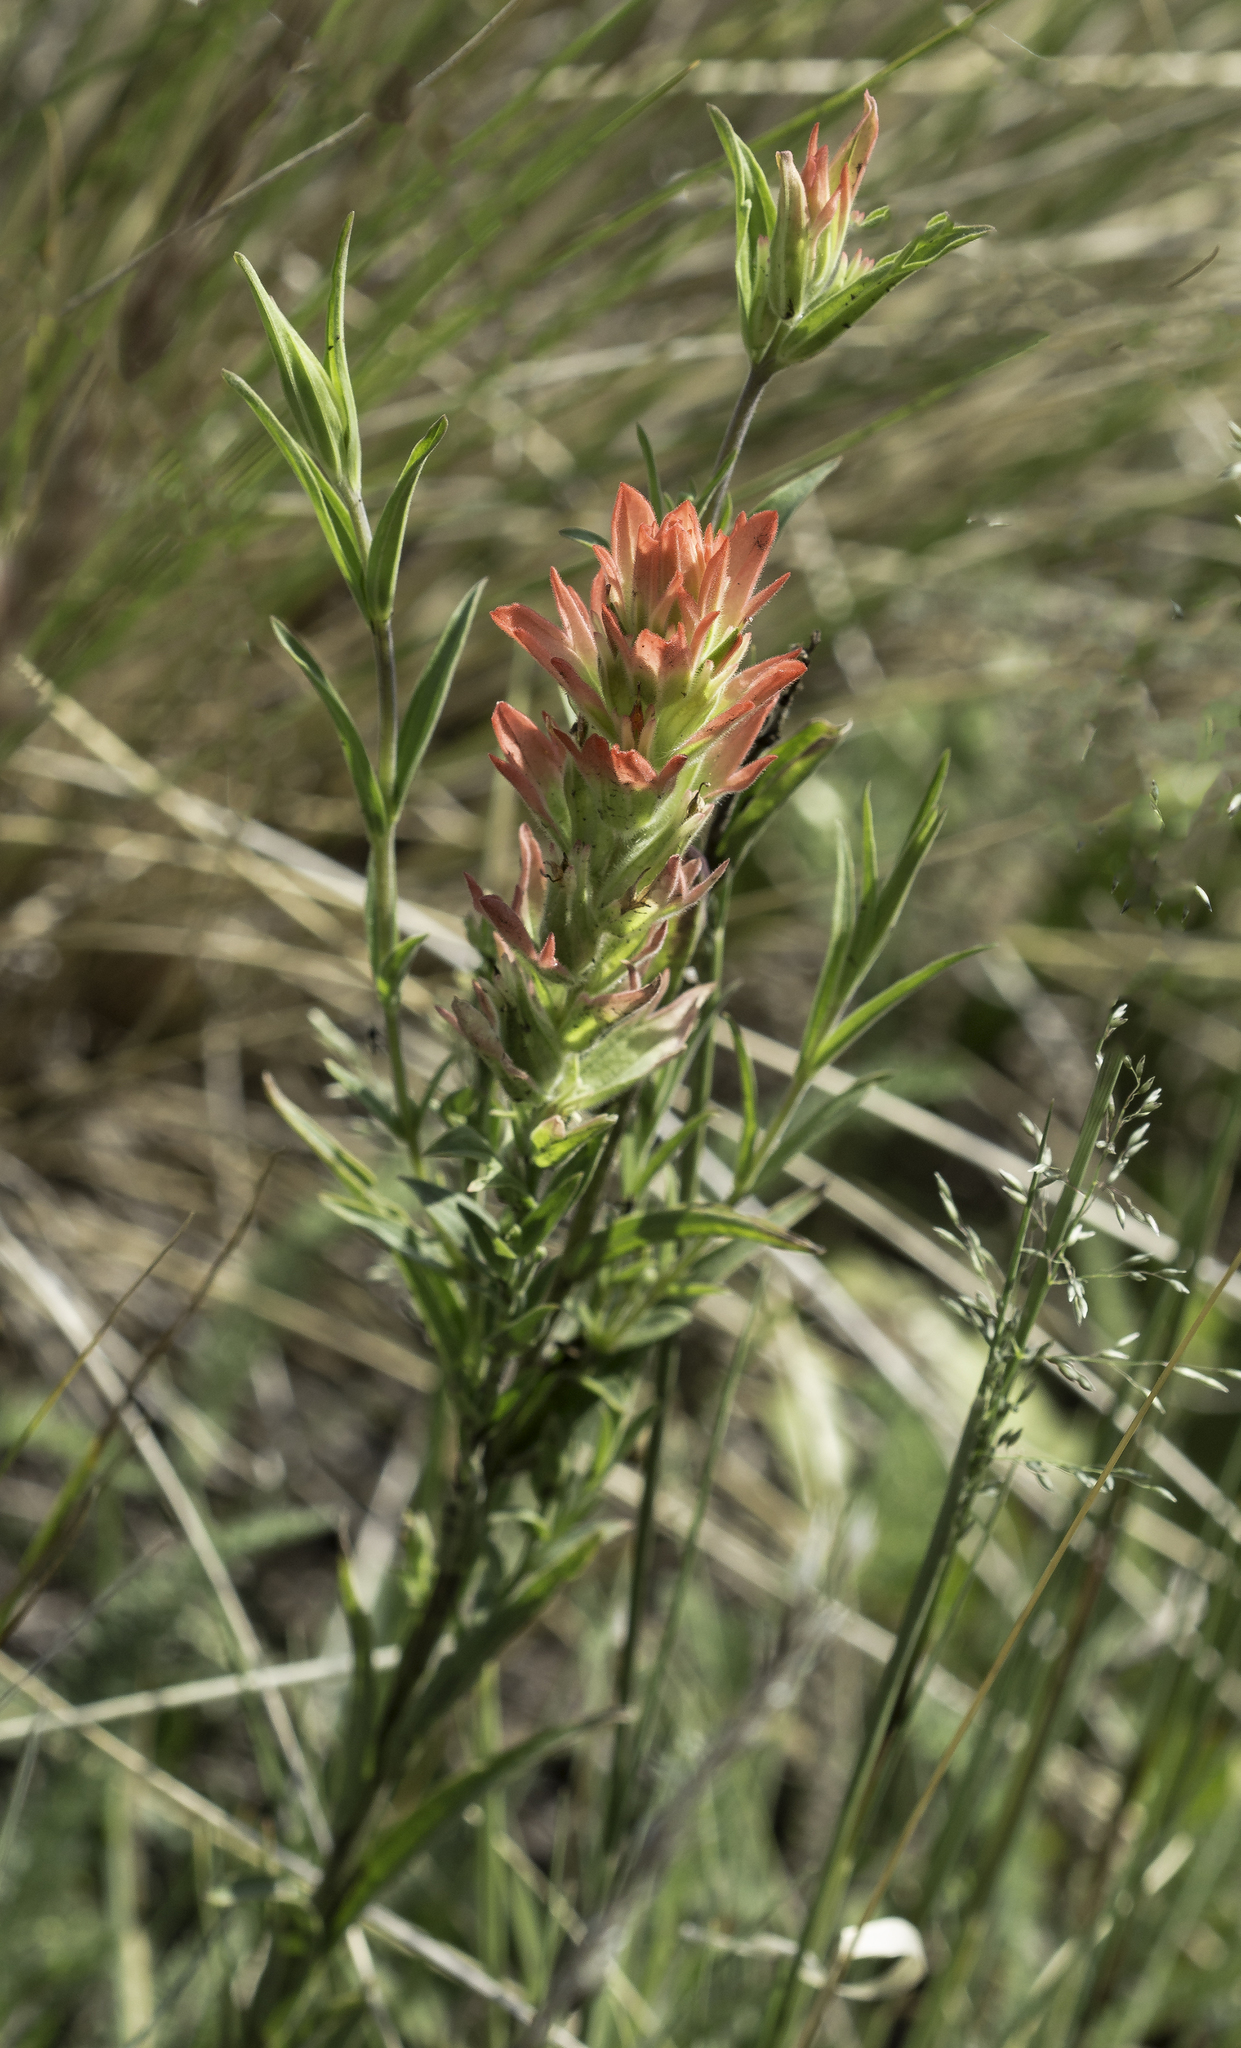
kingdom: Plantae
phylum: Tracheophyta
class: Magnoliopsida
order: Lamiales
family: Orobanchaceae
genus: Castilleja
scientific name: Castilleja nelsonii
